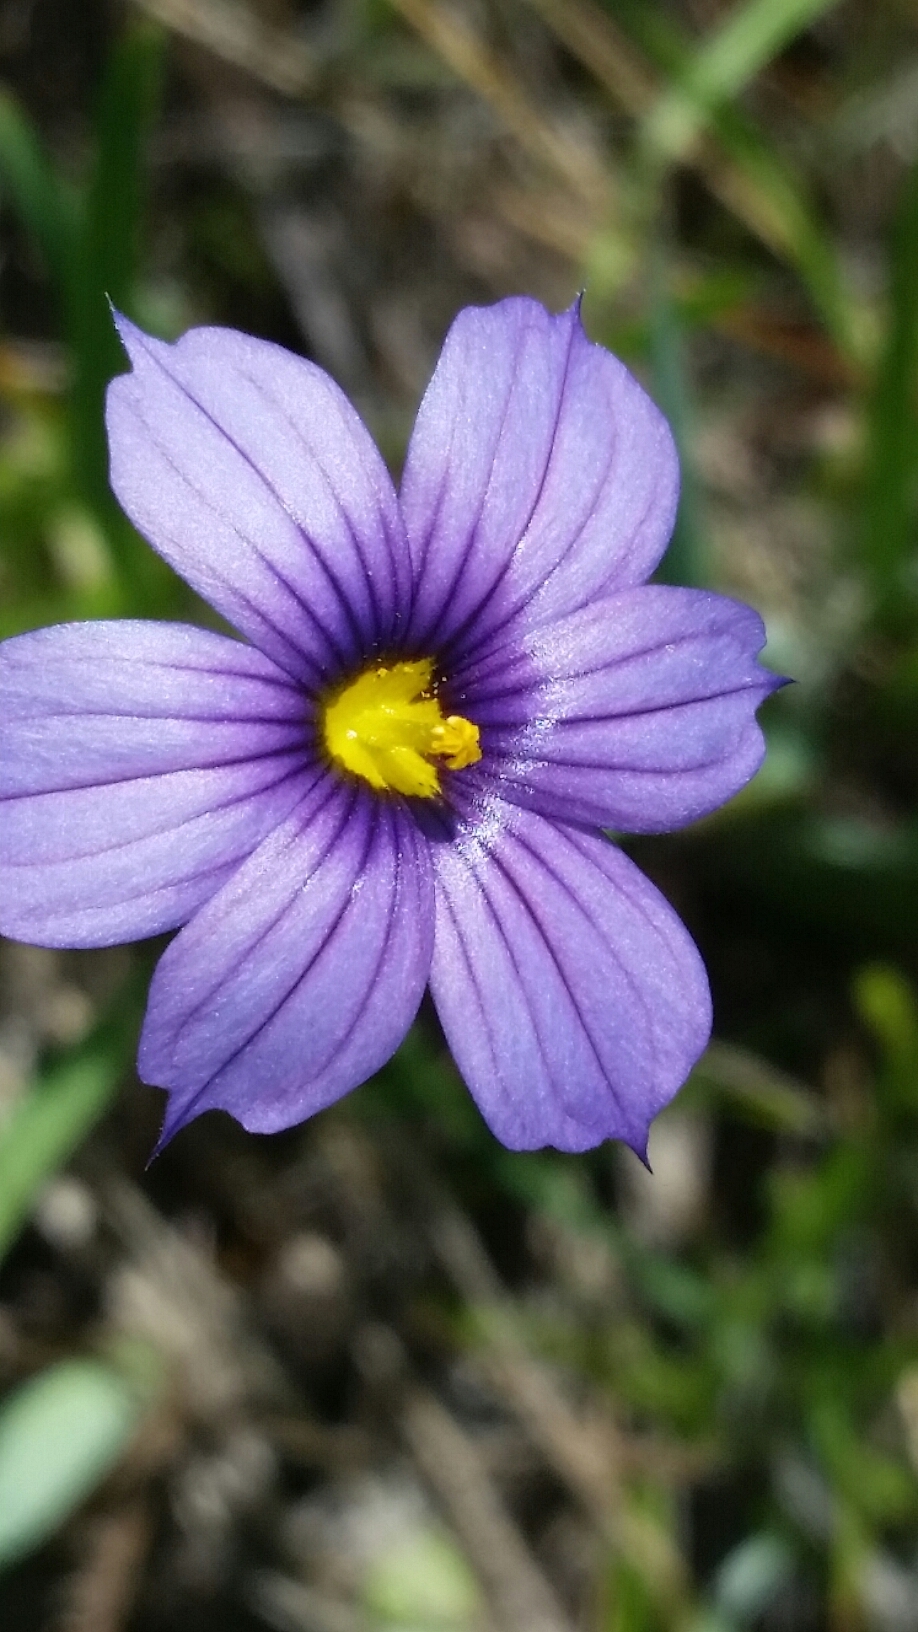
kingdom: Plantae
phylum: Tracheophyta
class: Liliopsida
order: Asparagales
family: Iridaceae
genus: Sisyrinchium
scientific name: Sisyrinchium bellum
